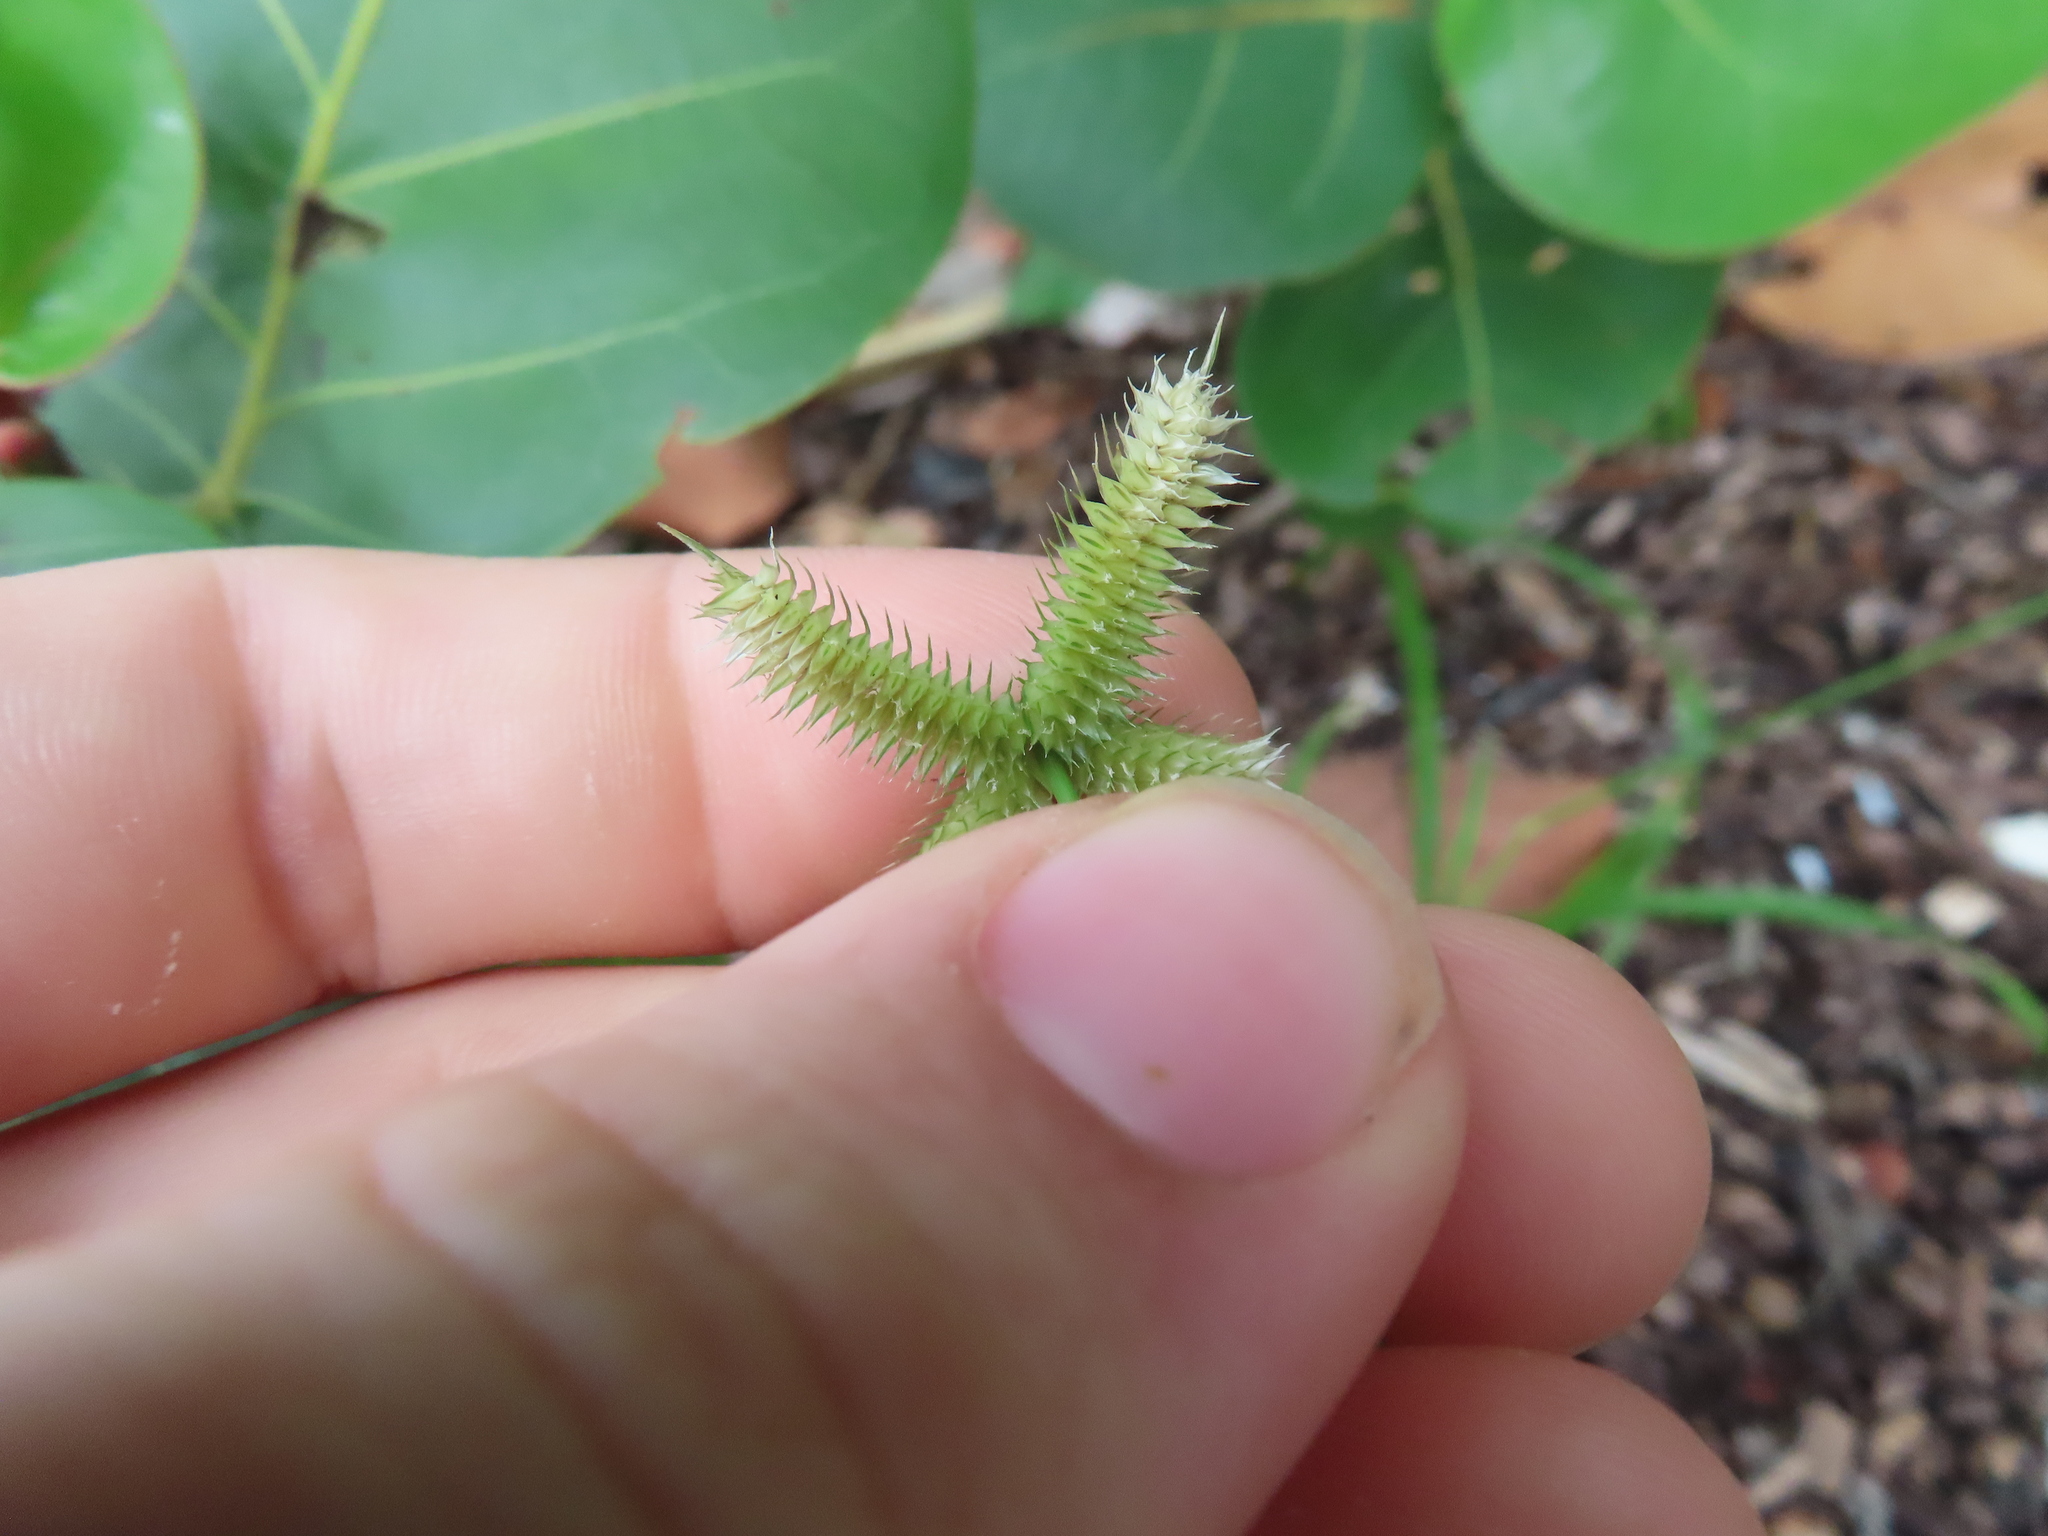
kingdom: Plantae
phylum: Tracheophyta
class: Liliopsida
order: Poales
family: Poaceae
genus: Dactyloctenium
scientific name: Dactyloctenium aegyptium
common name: Egyptian grass
